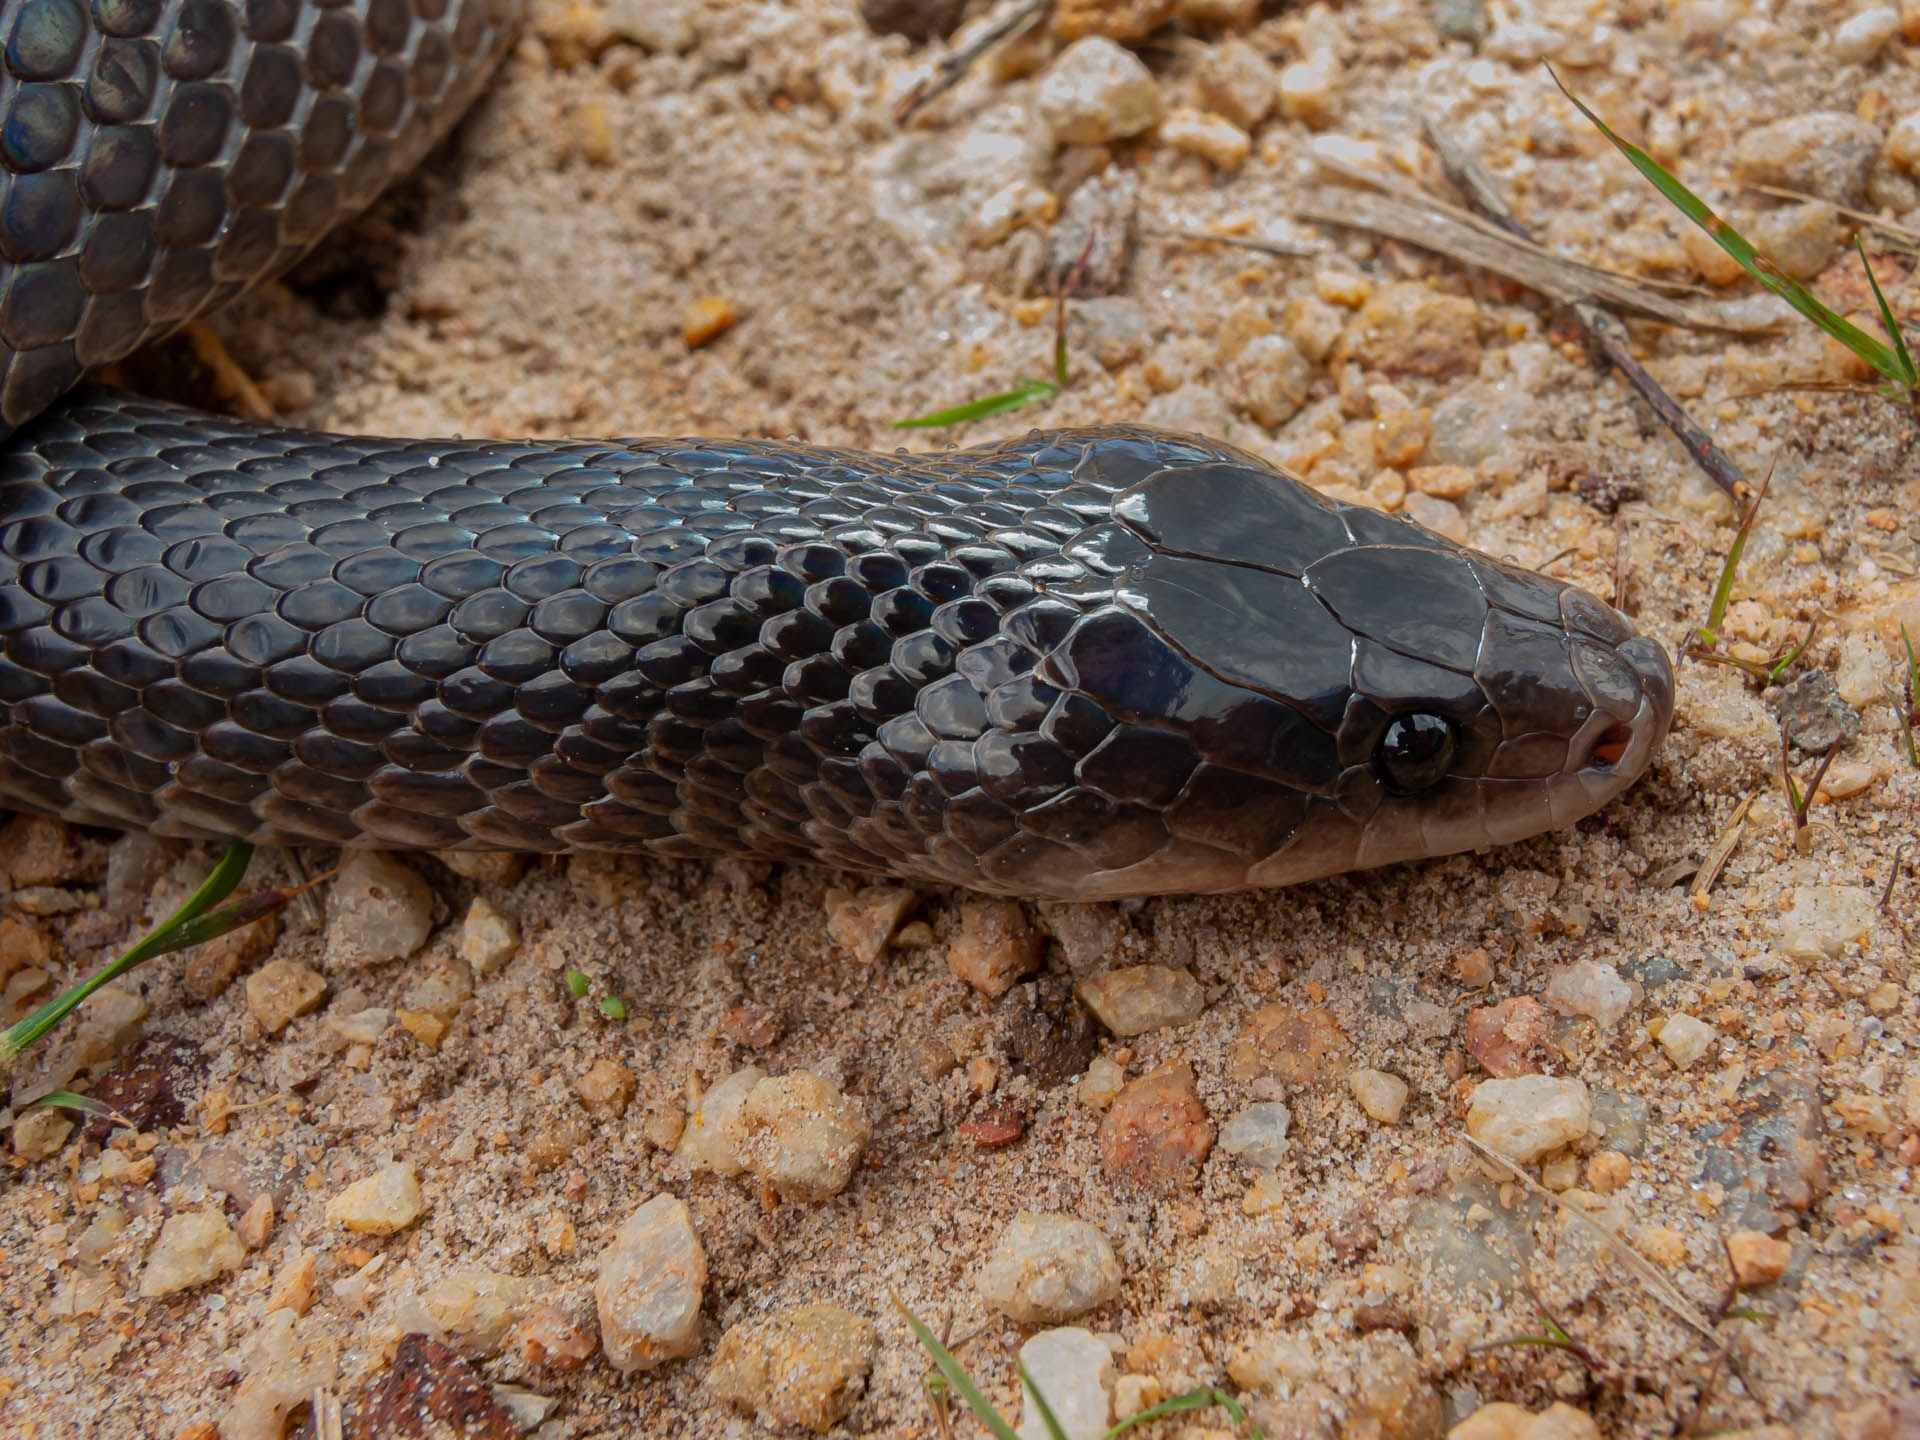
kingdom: Animalia
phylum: Chordata
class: Squamata
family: Colubridae
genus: Pseudoboa
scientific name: Pseudoboa nigra
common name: Black false boa
